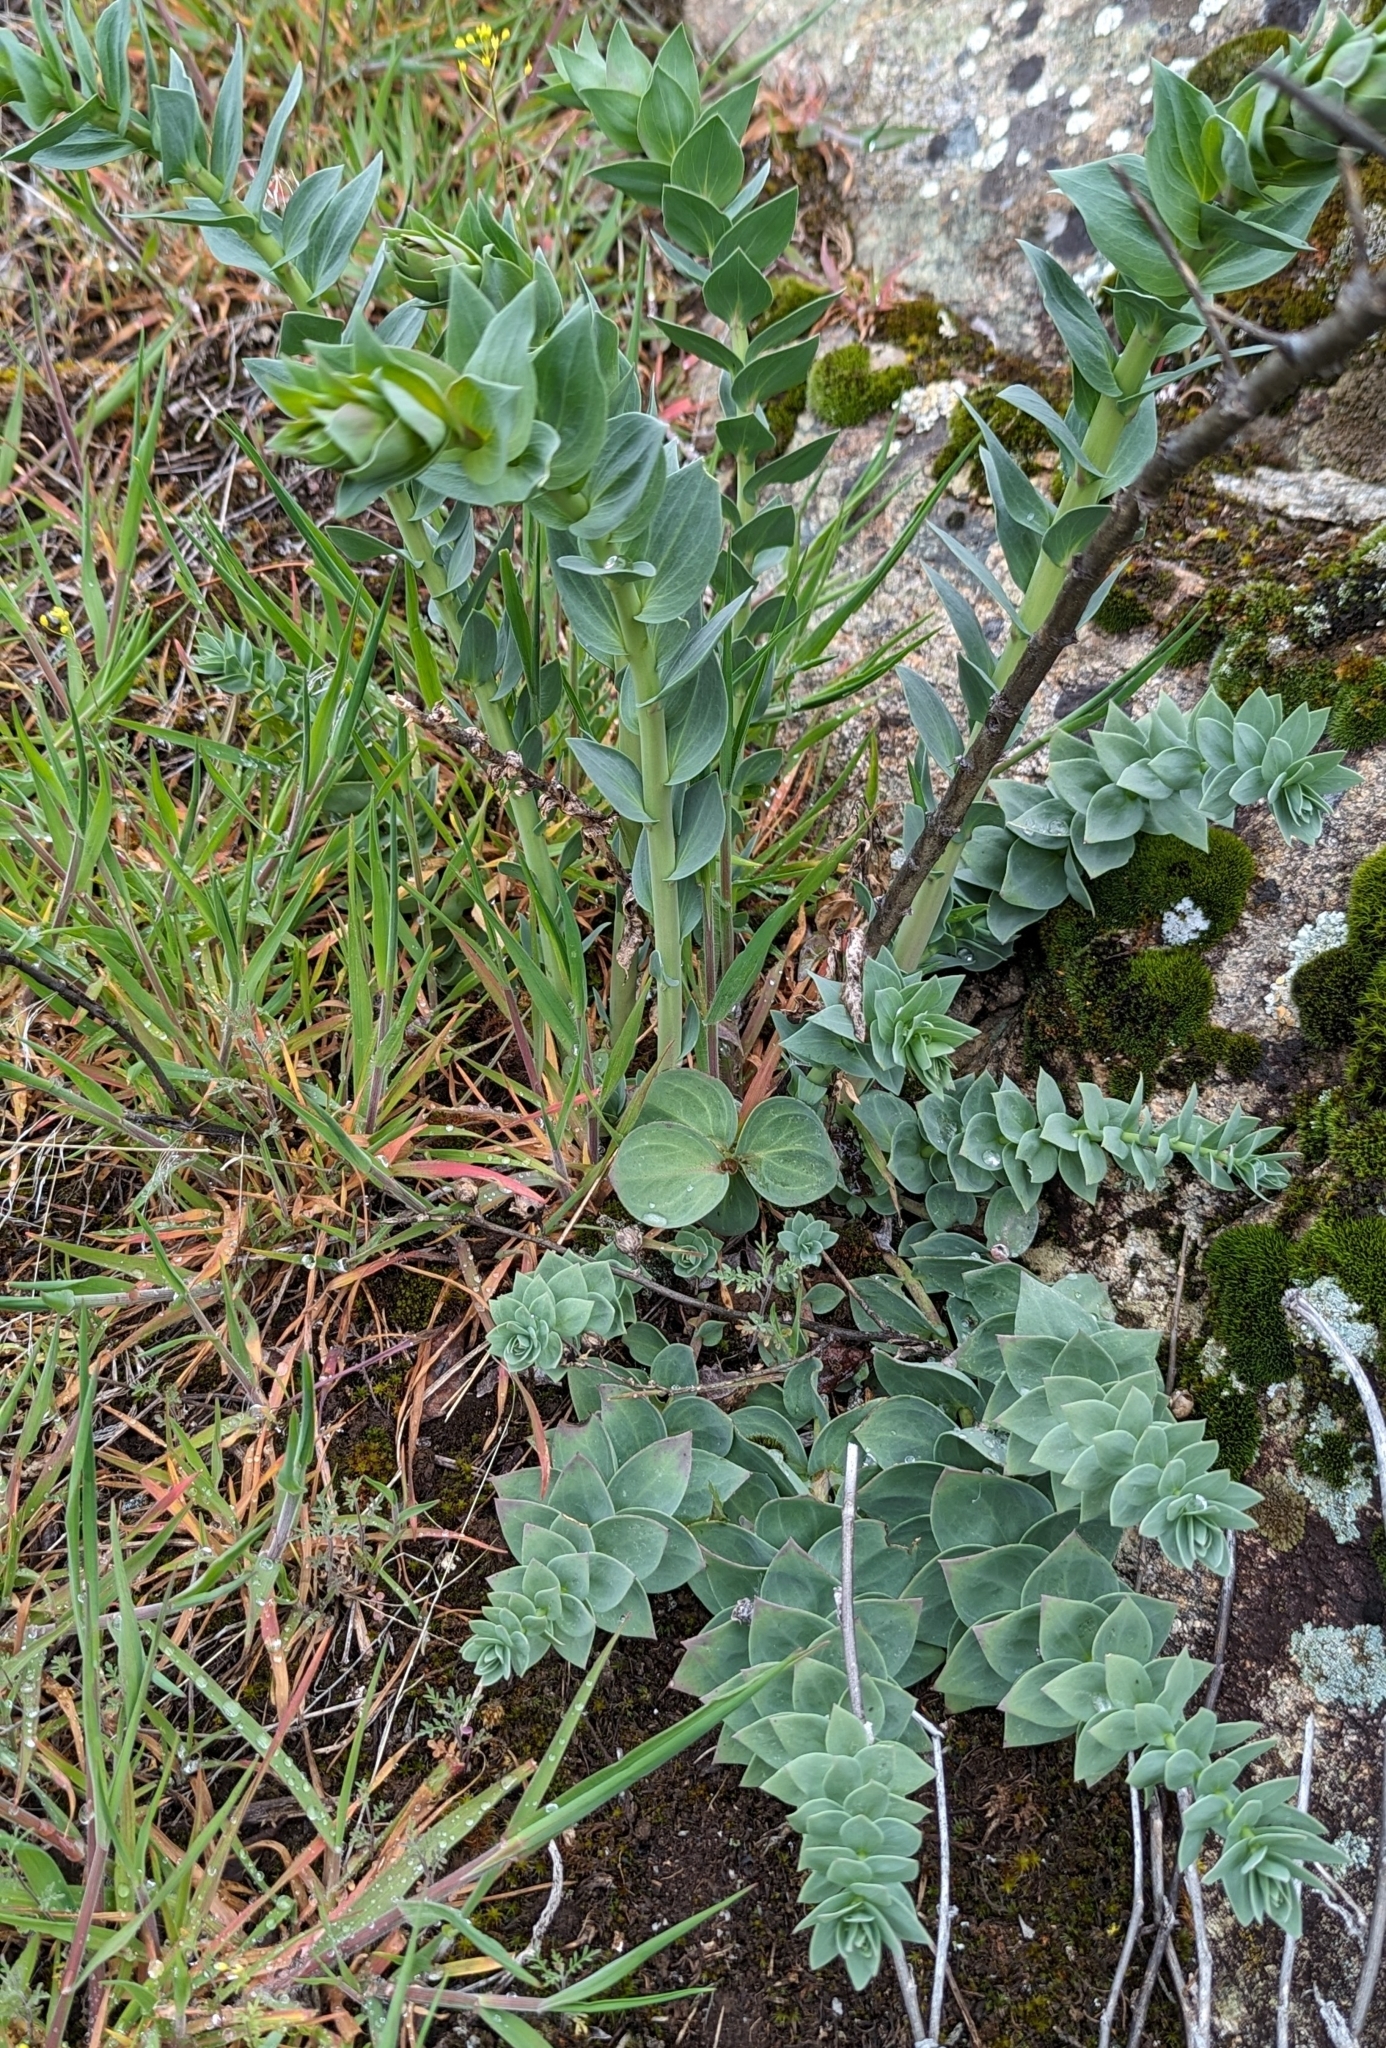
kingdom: Plantae
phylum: Tracheophyta
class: Magnoliopsida
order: Lamiales
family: Plantaginaceae
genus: Linaria
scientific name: Linaria dalmatica
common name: Dalmatian toadflax
